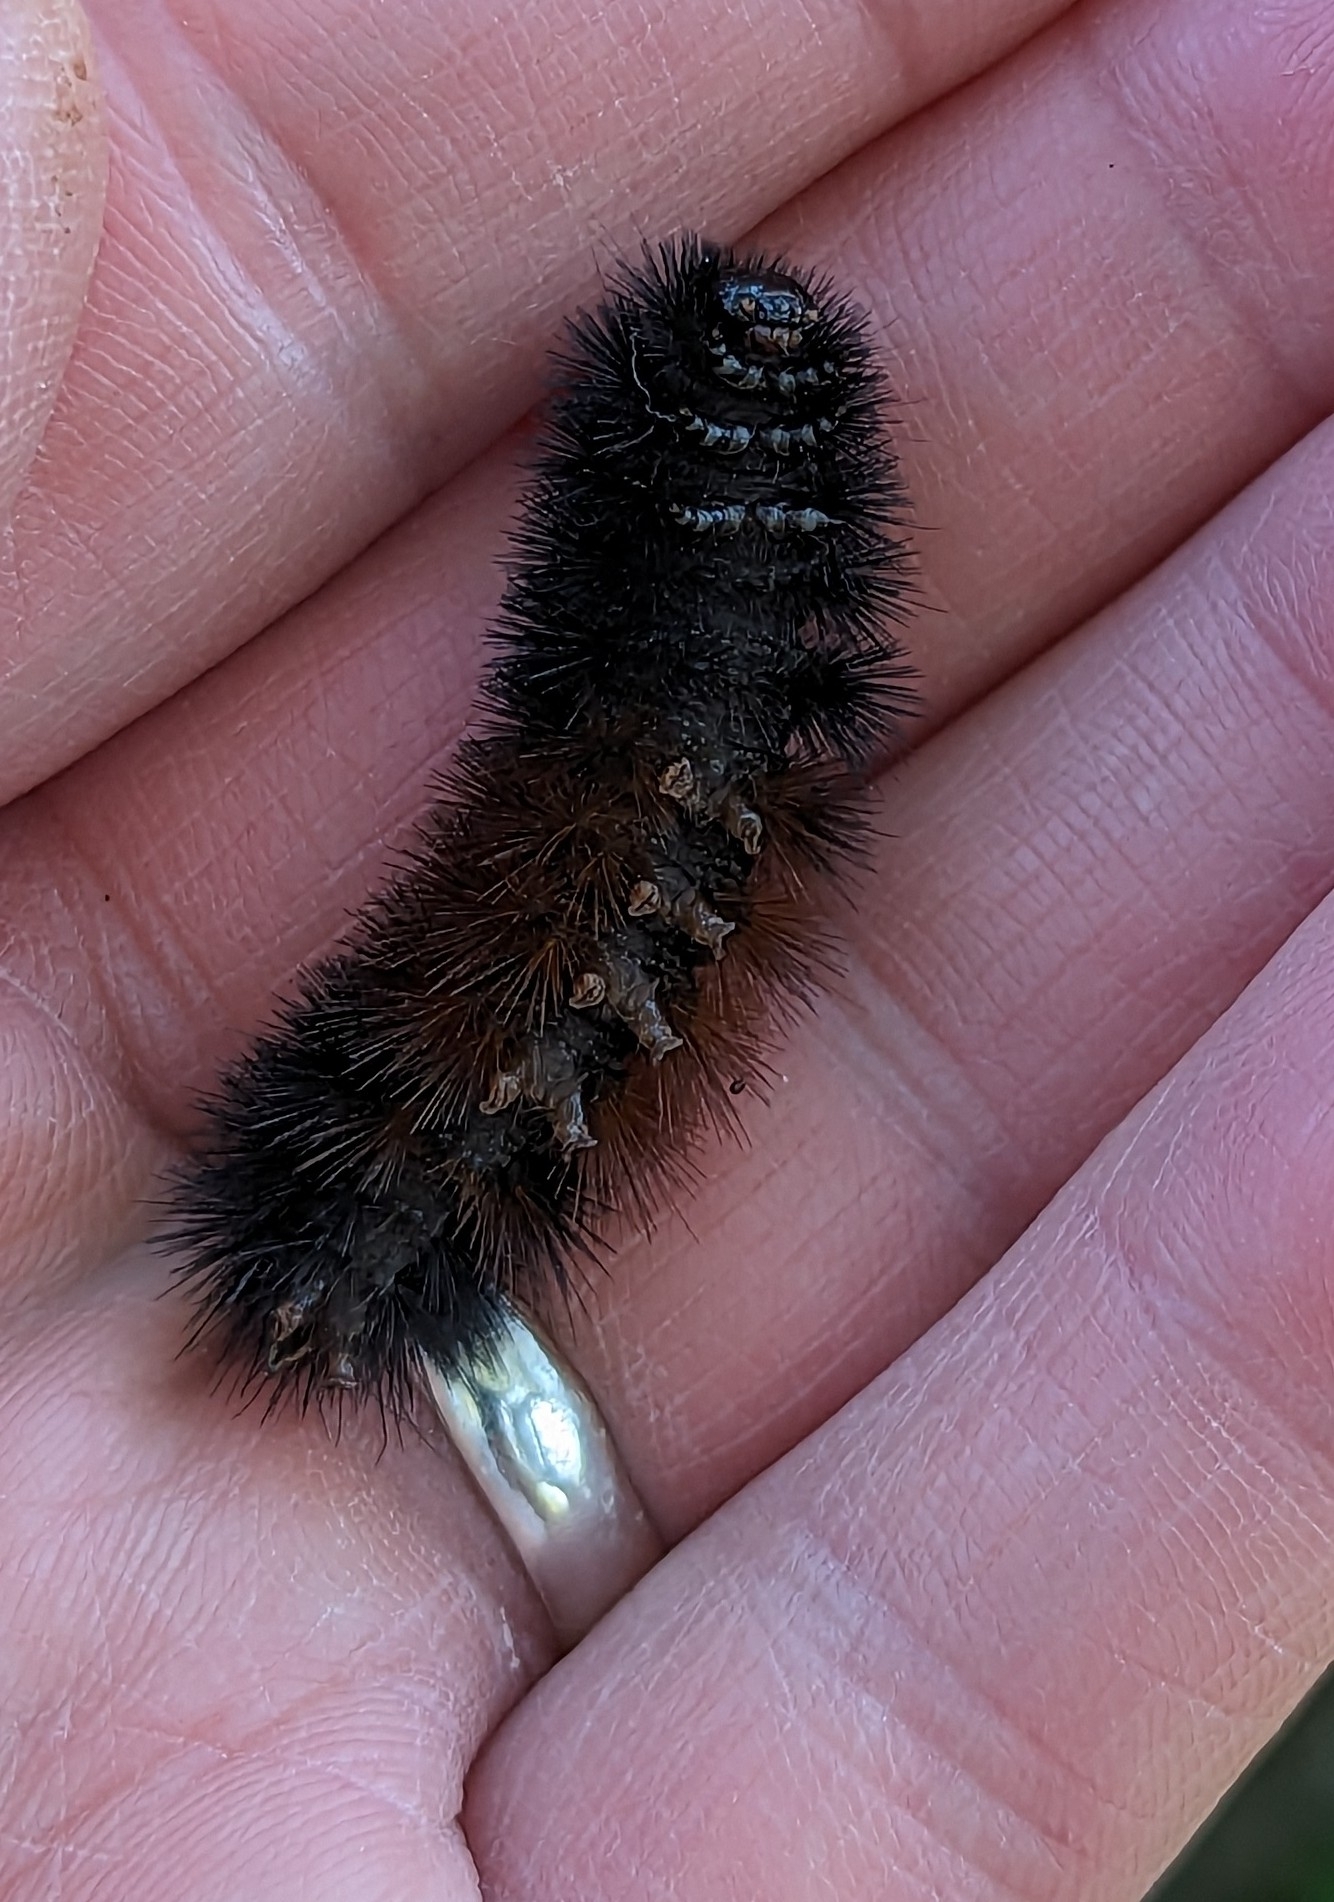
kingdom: Animalia
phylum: Arthropoda
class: Insecta
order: Lepidoptera
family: Erebidae
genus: Pyrrharctia
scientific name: Pyrrharctia isabella
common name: Isabella tiger moth
